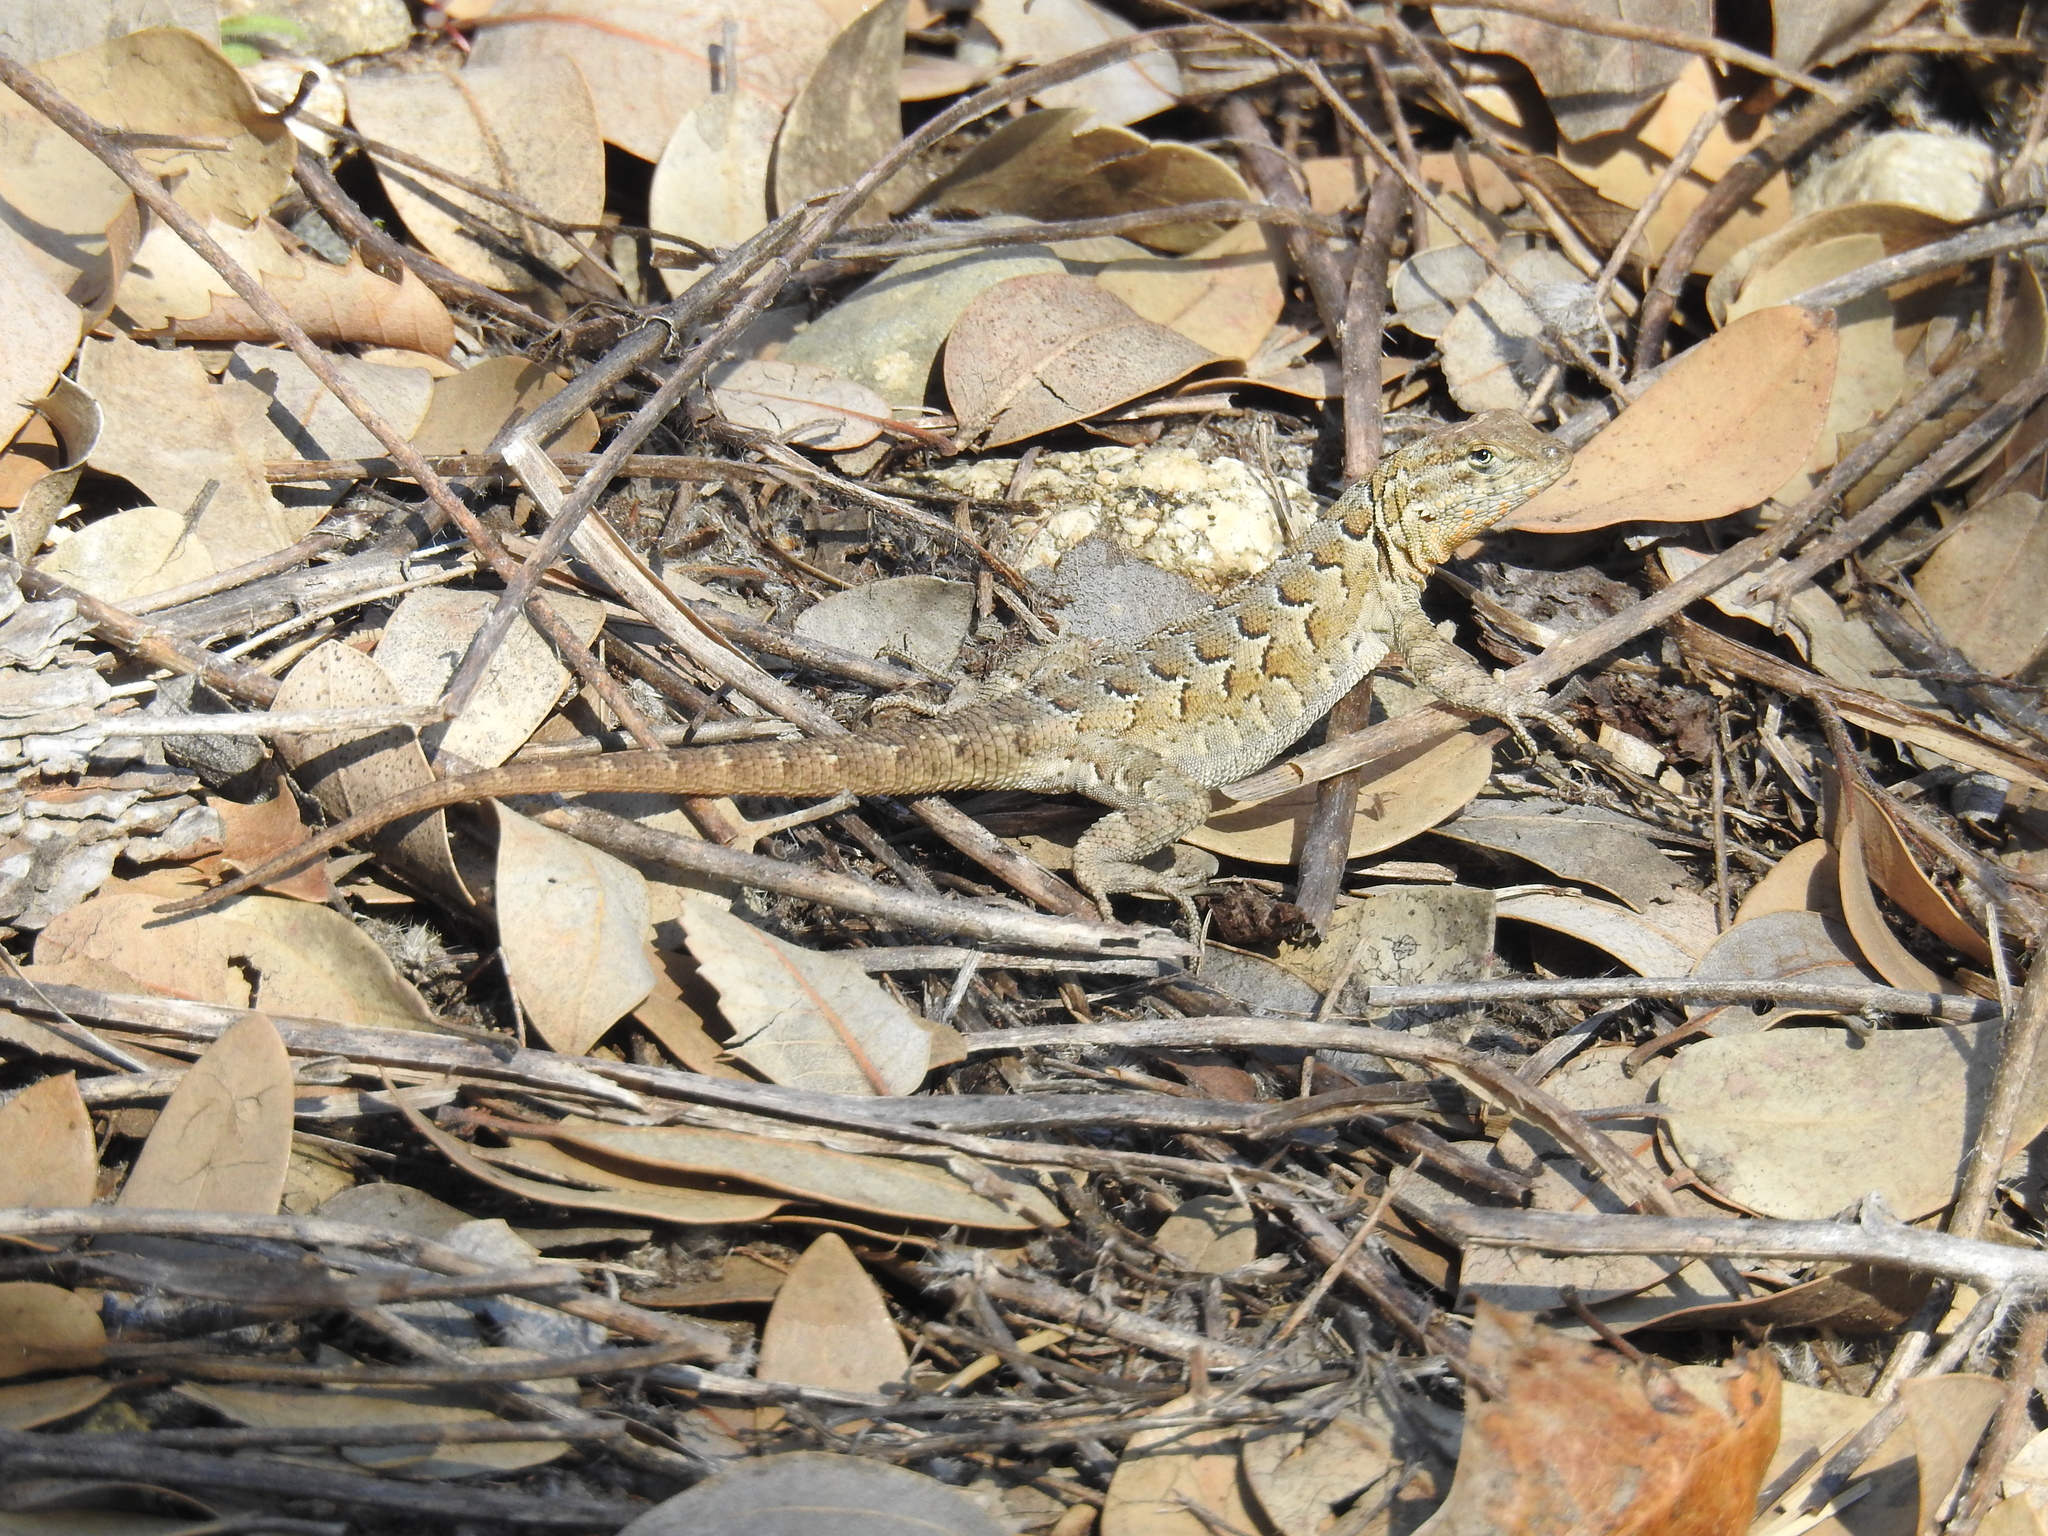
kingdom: Animalia
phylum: Chordata
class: Squamata
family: Phrynosomatidae
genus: Uta
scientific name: Uta stansburiana
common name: Side-blotched lizard
